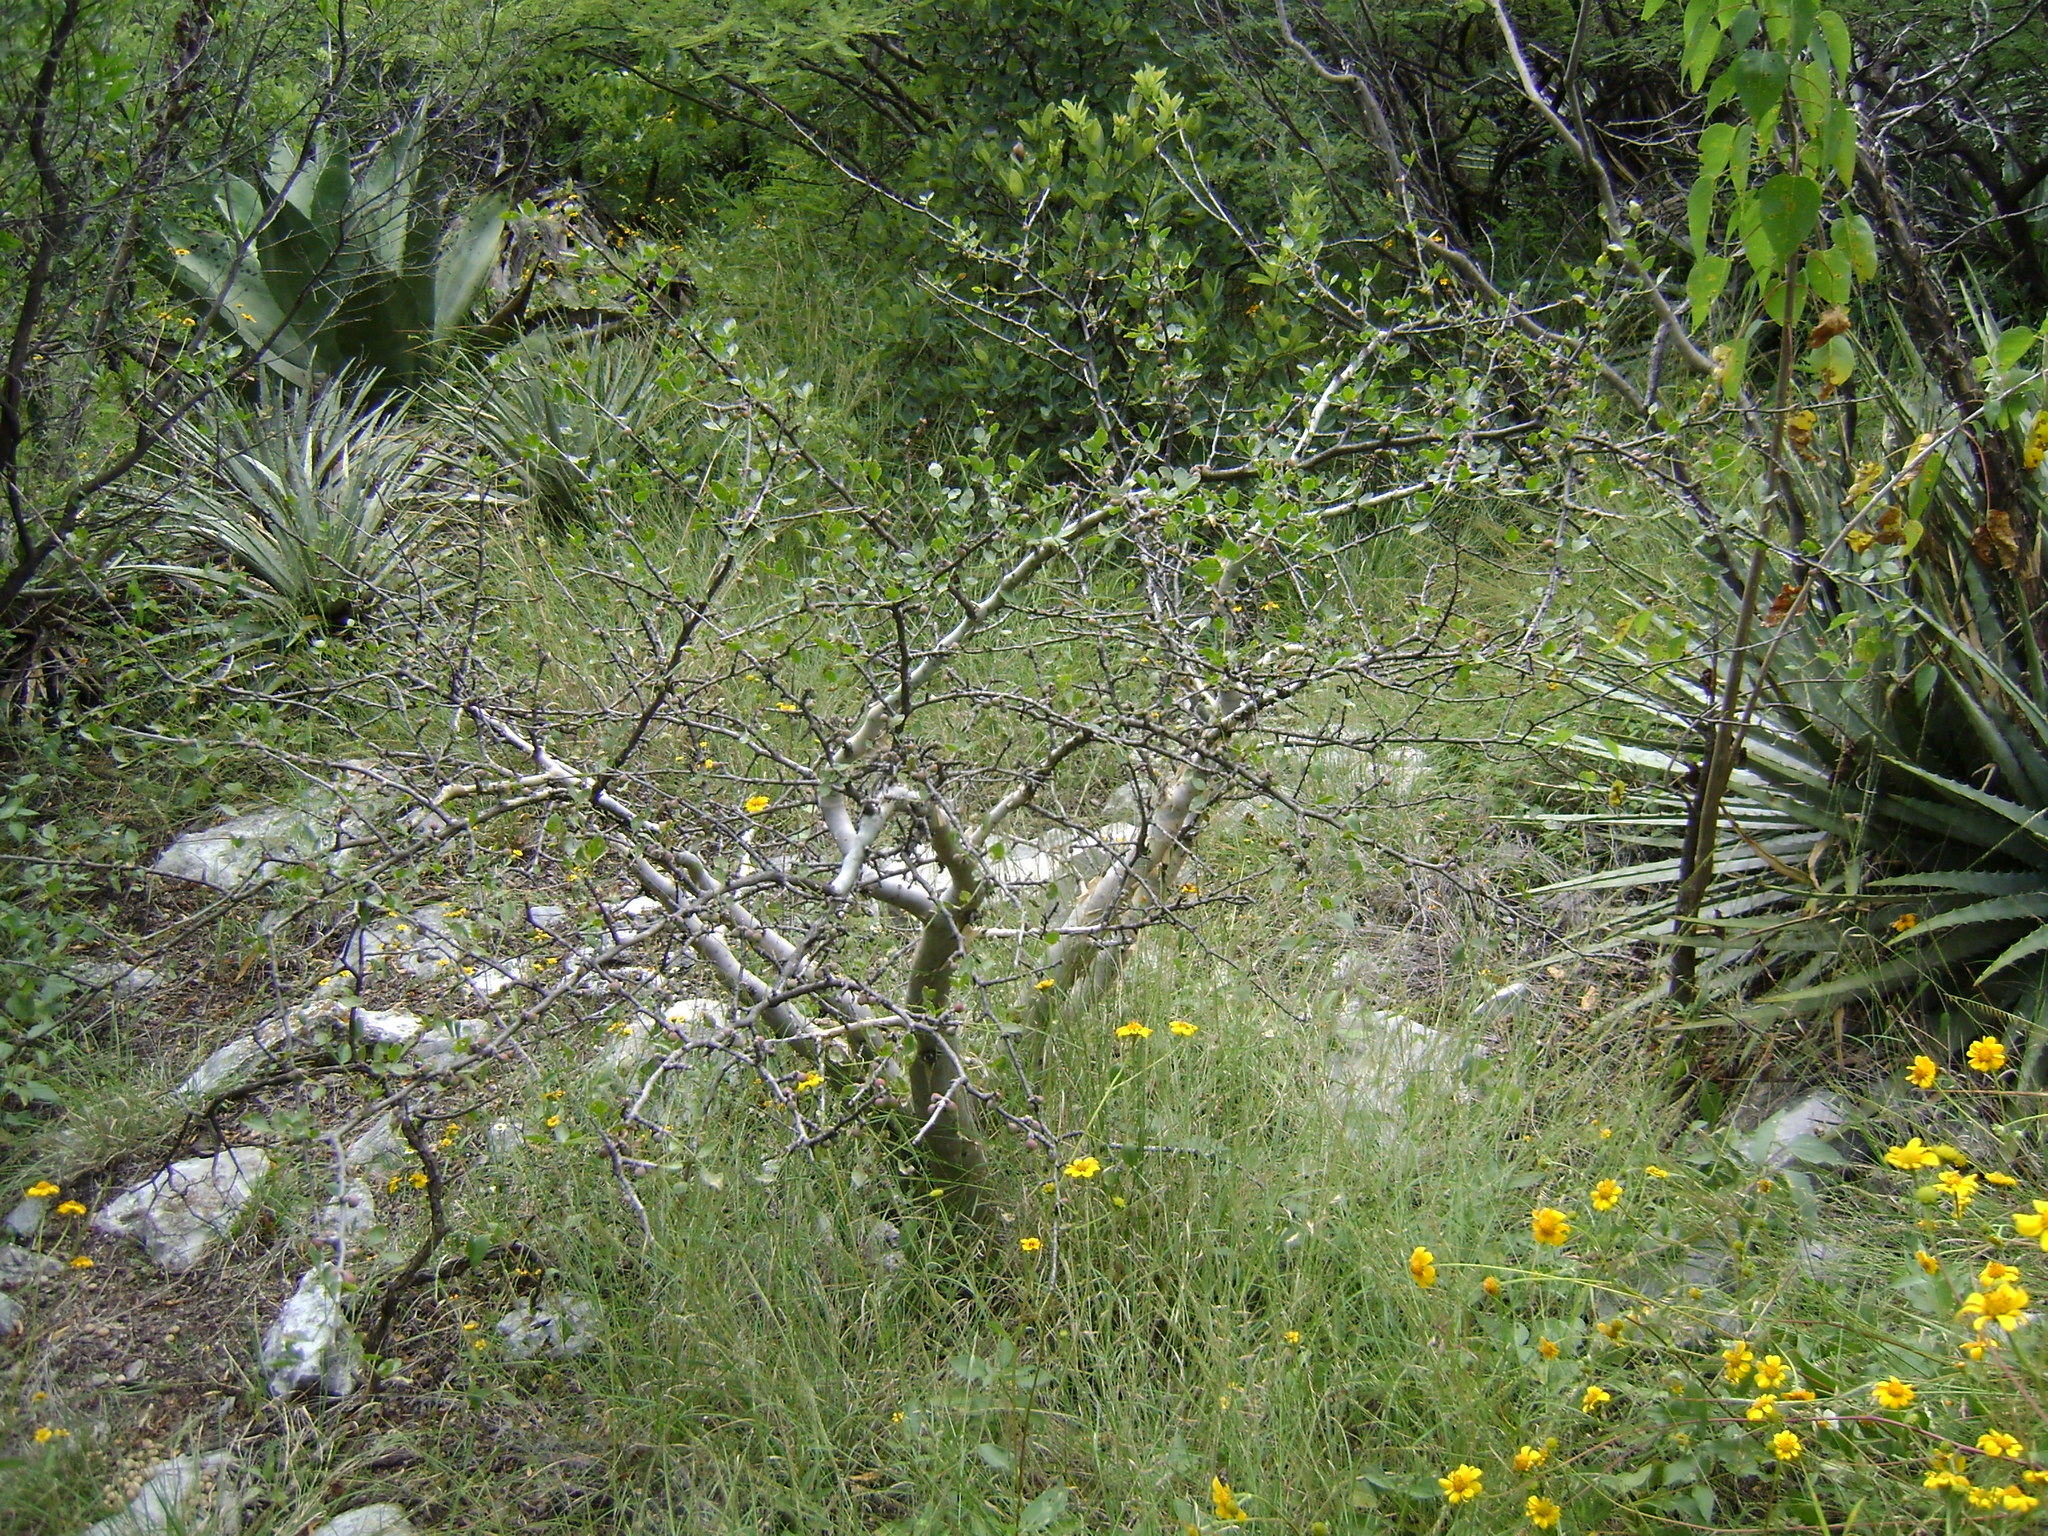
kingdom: Plantae
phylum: Tracheophyta
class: Magnoliopsida
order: Sapindales
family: Burseraceae
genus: Bursera
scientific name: Bursera fagaroides
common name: Elephant tree
